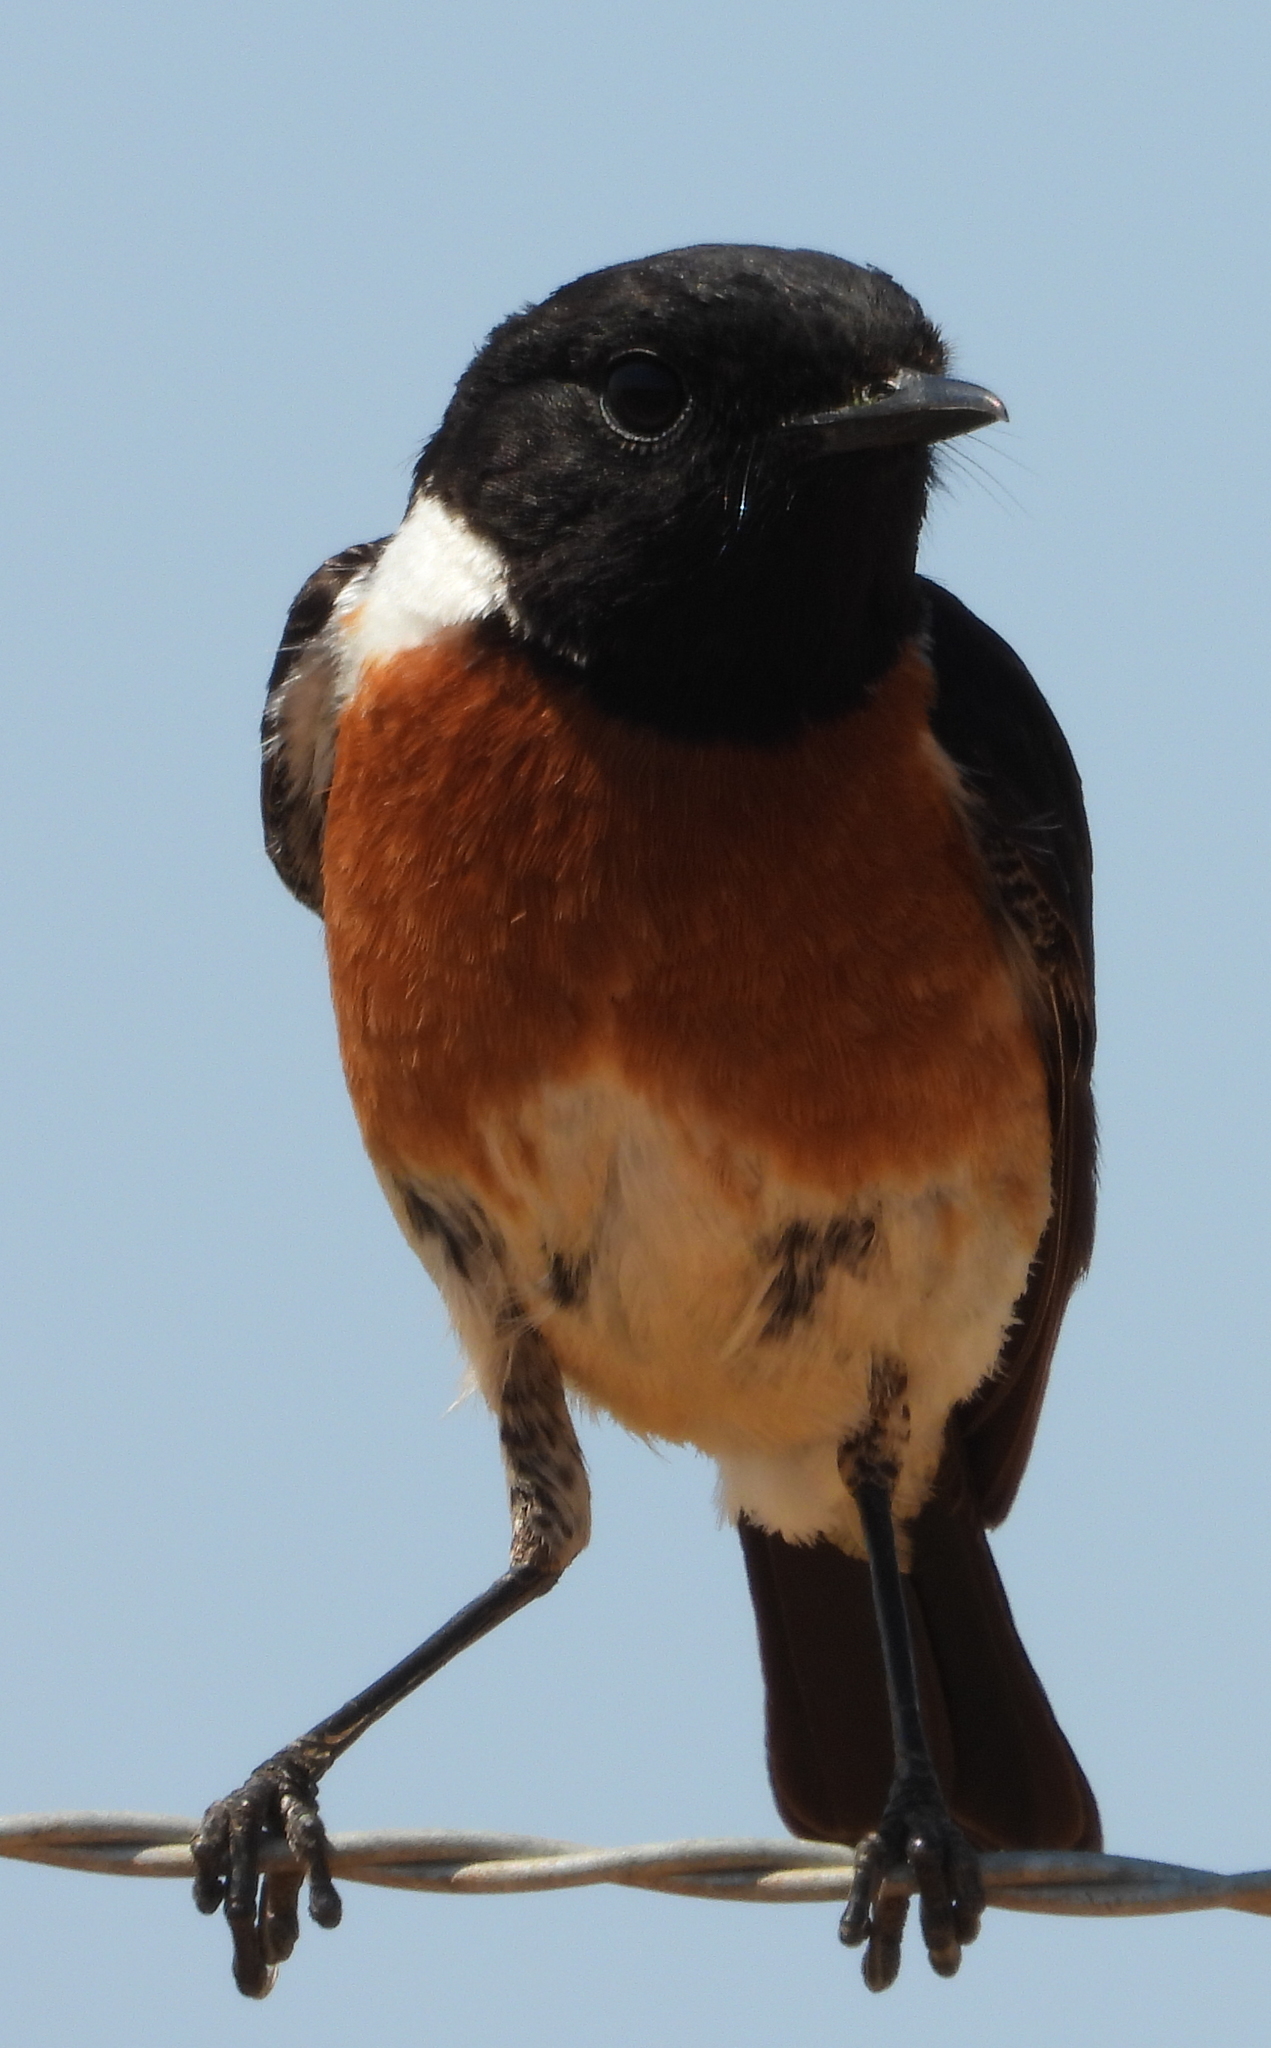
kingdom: Animalia
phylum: Chordata
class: Aves
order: Passeriformes
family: Muscicapidae
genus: Saxicola
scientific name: Saxicola torquatus
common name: African stonechat
